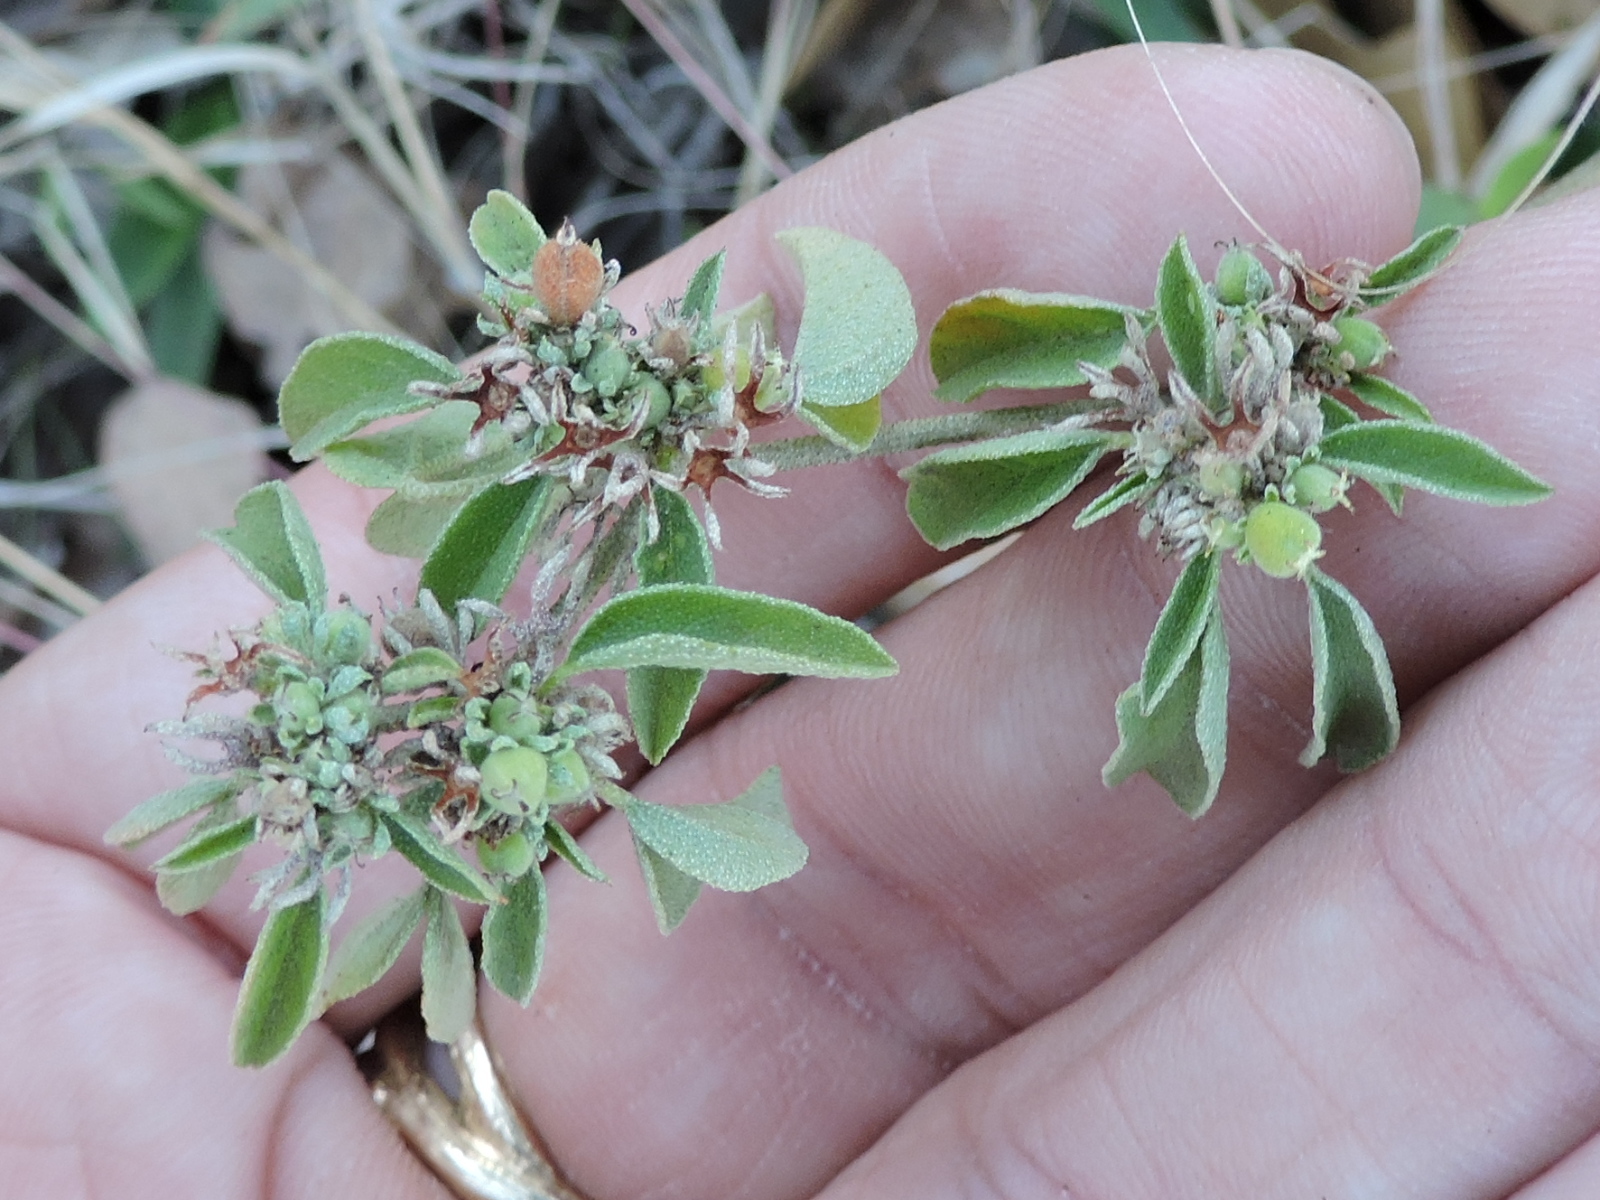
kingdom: Plantae
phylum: Tracheophyta
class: Magnoliopsida
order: Malpighiales
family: Euphorbiaceae
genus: Croton
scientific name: Croton monanthogynus
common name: One-seed croton
